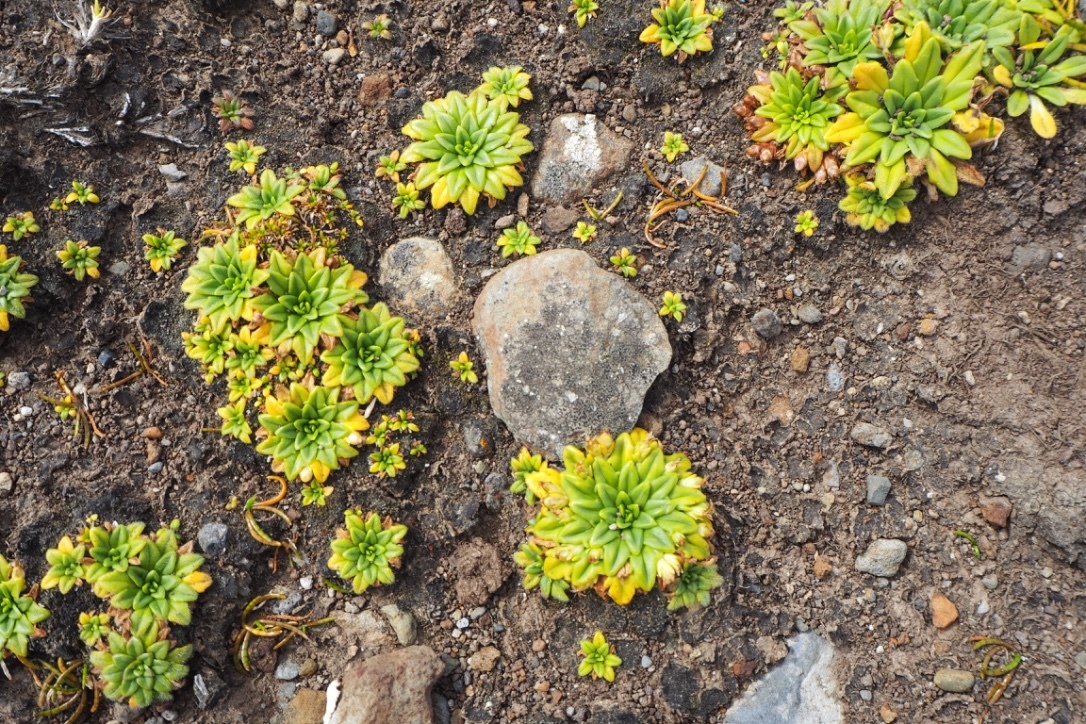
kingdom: Plantae
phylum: Tracheophyta
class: Magnoliopsida
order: Lamiales
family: Plantaginaceae
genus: Plantago
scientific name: Plantago brownii
